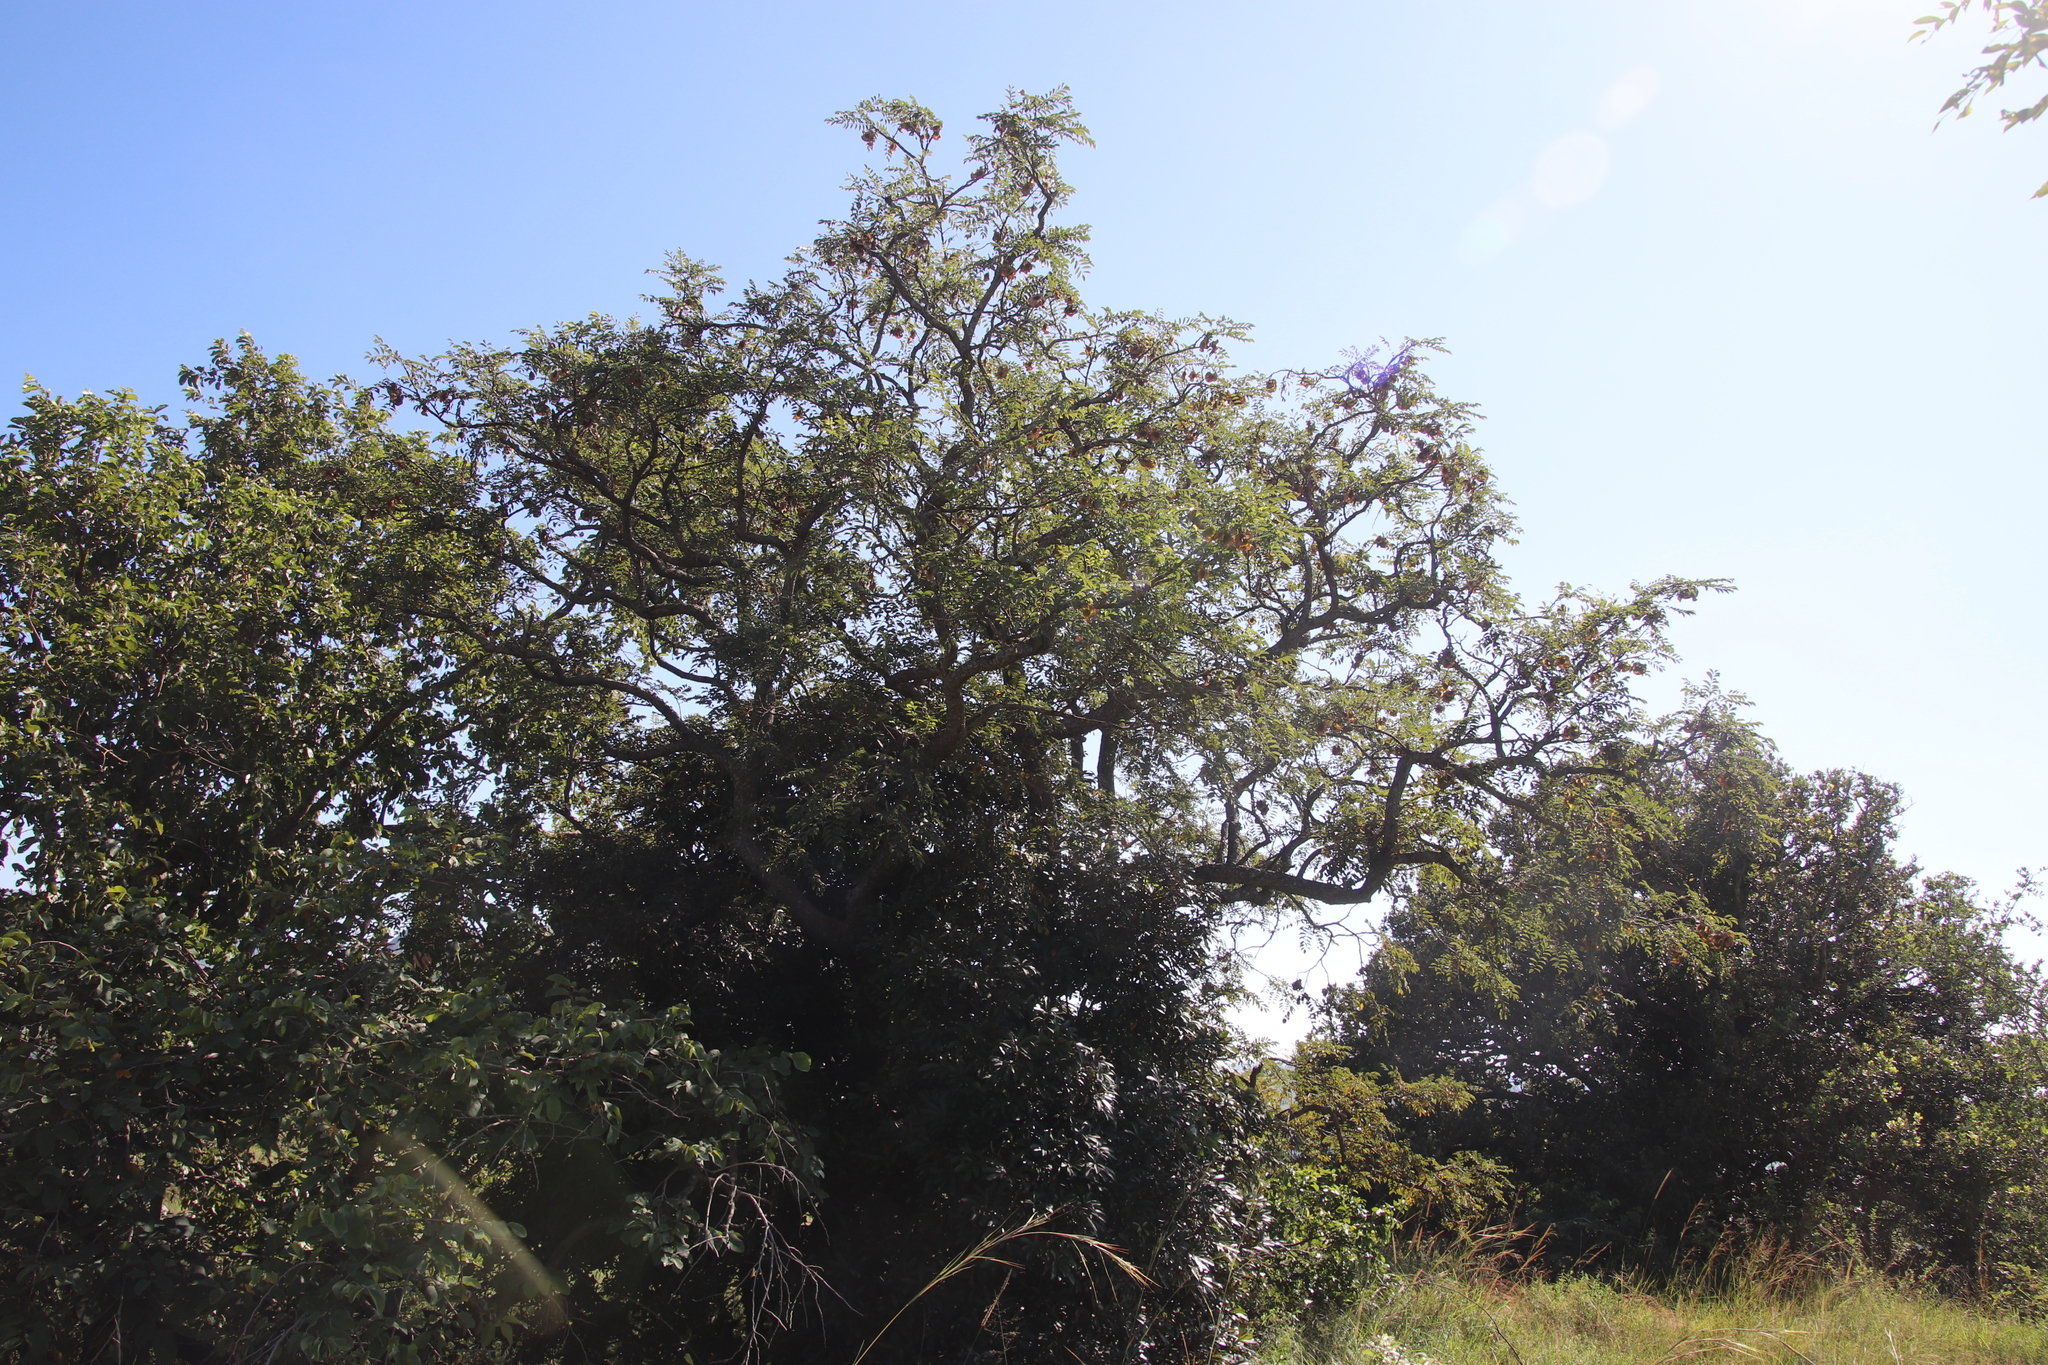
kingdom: Plantae
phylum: Tracheophyta
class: Magnoliopsida
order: Fabales
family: Fabaceae
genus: Pterocarpus
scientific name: Pterocarpus angolensis
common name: Bloodwood tree
